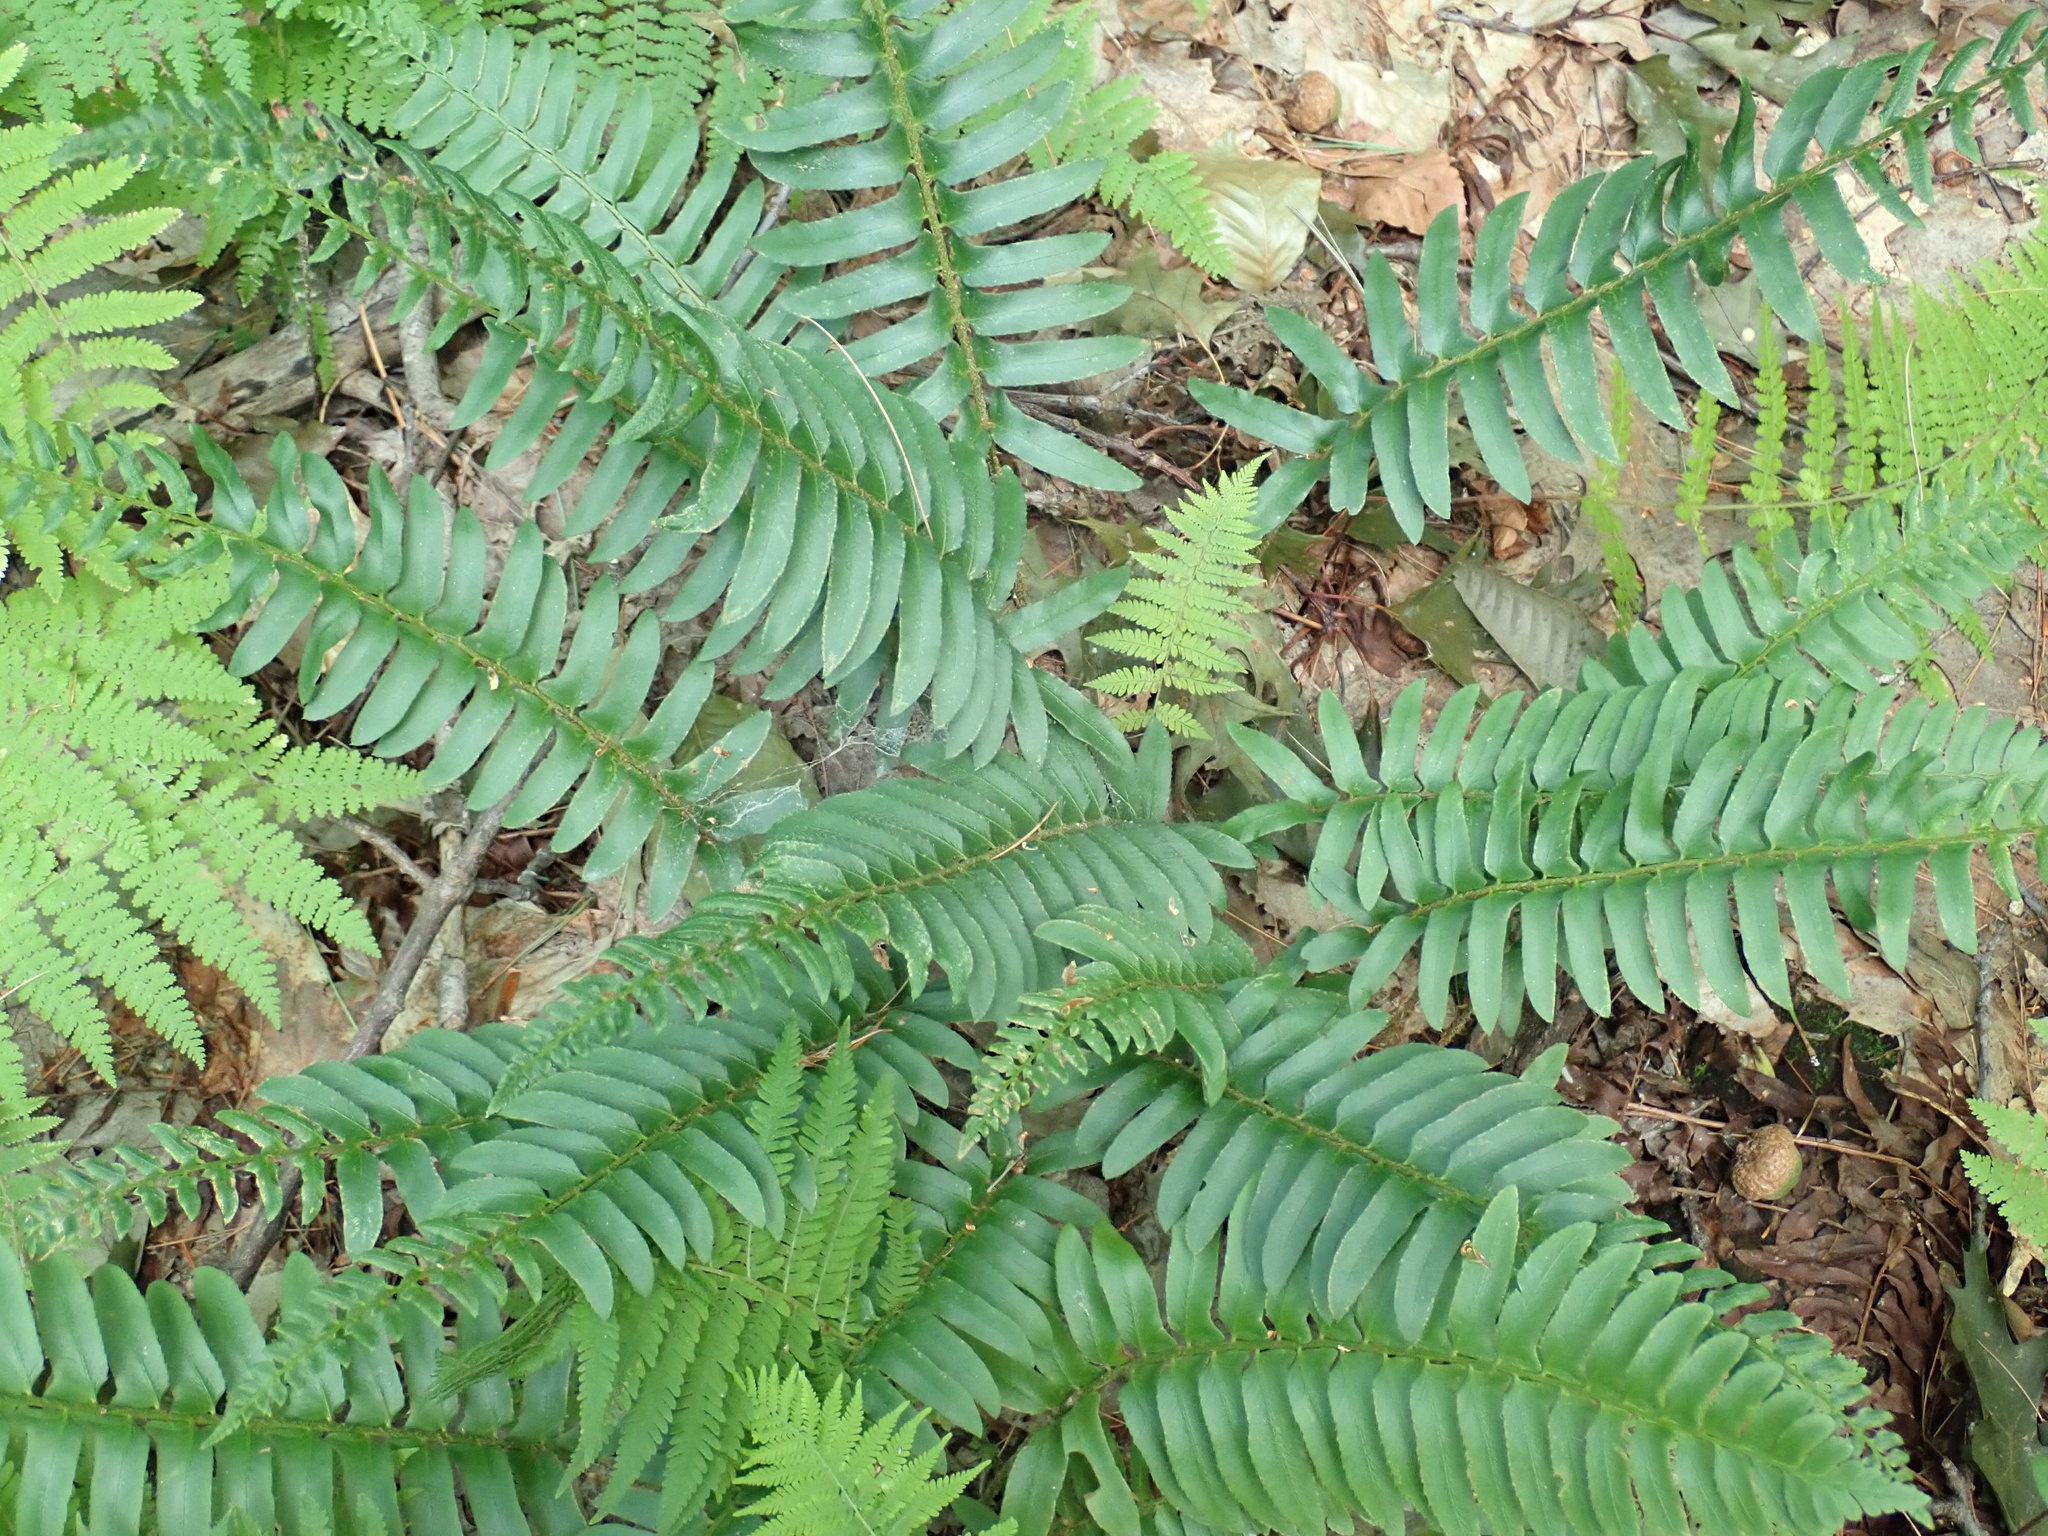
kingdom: Plantae
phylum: Tracheophyta
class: Polypodiopsida
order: Polypodiales
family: Dryopteridaceae
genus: Polystichum
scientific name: Polystichum acrostichoides
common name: Christmas fern
